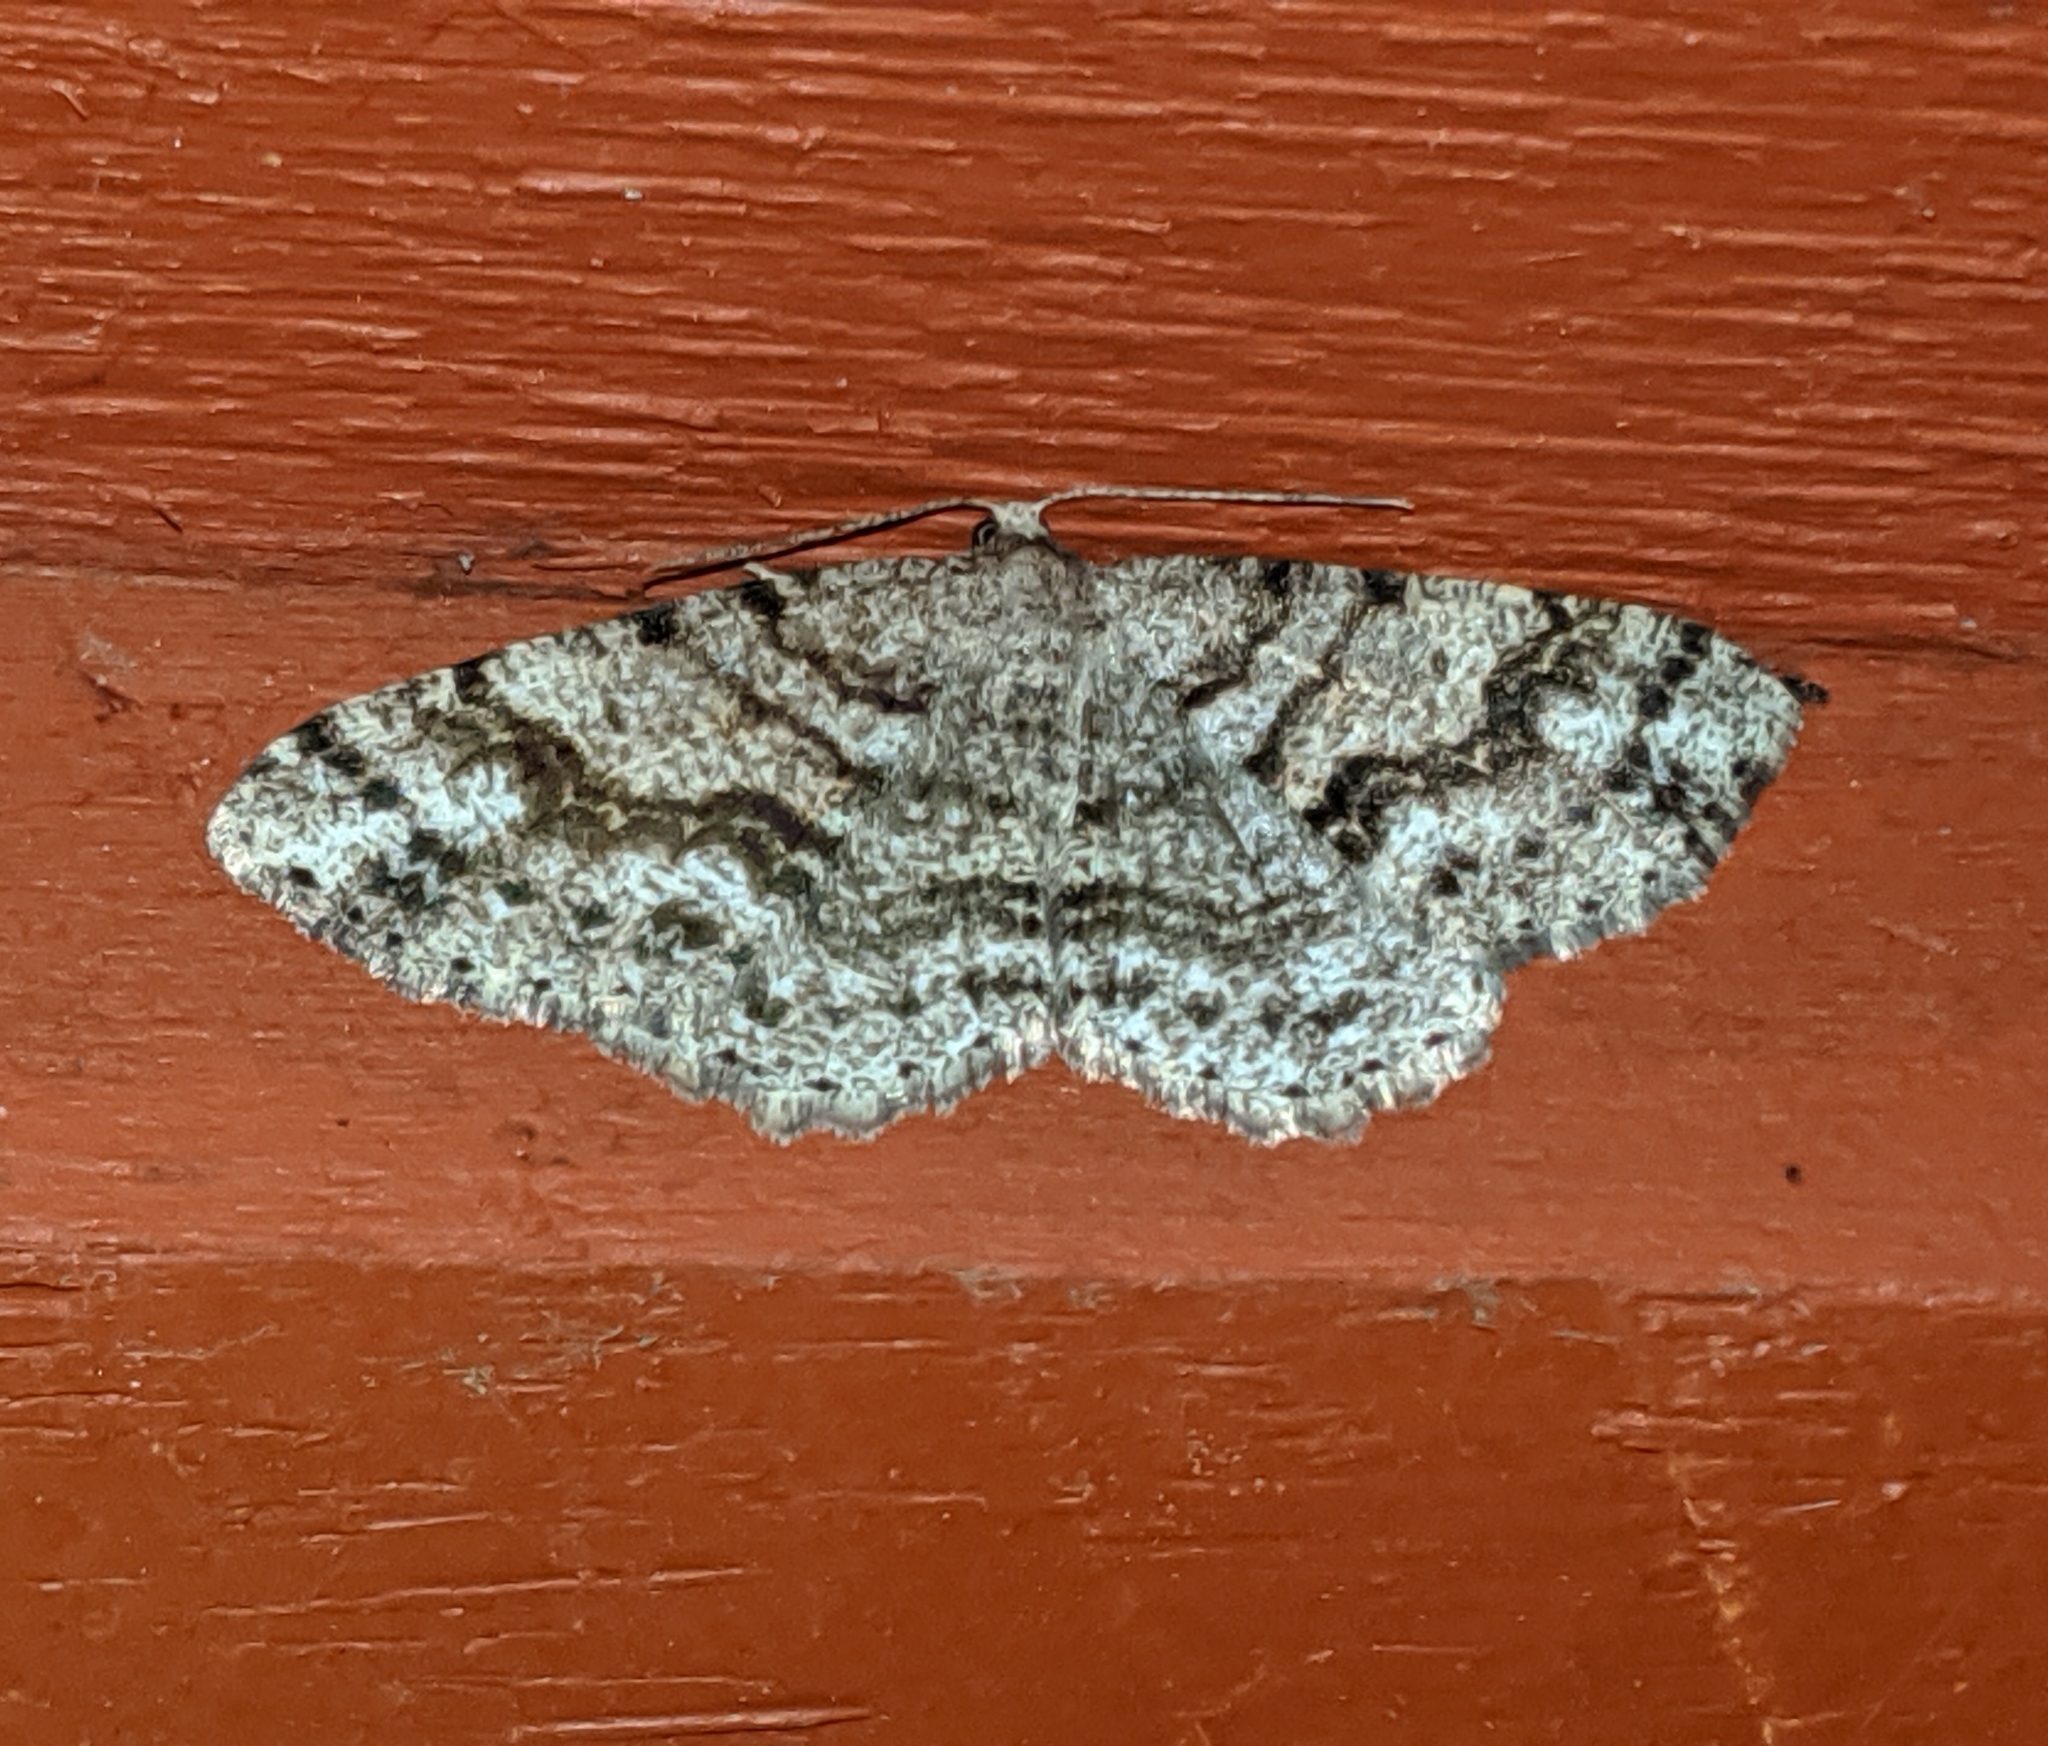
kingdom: Animalia
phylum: Arthropoda
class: Insecta
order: Lepidoptera
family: Geometridae
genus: Melanolophia
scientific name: Melanolophia imitata
